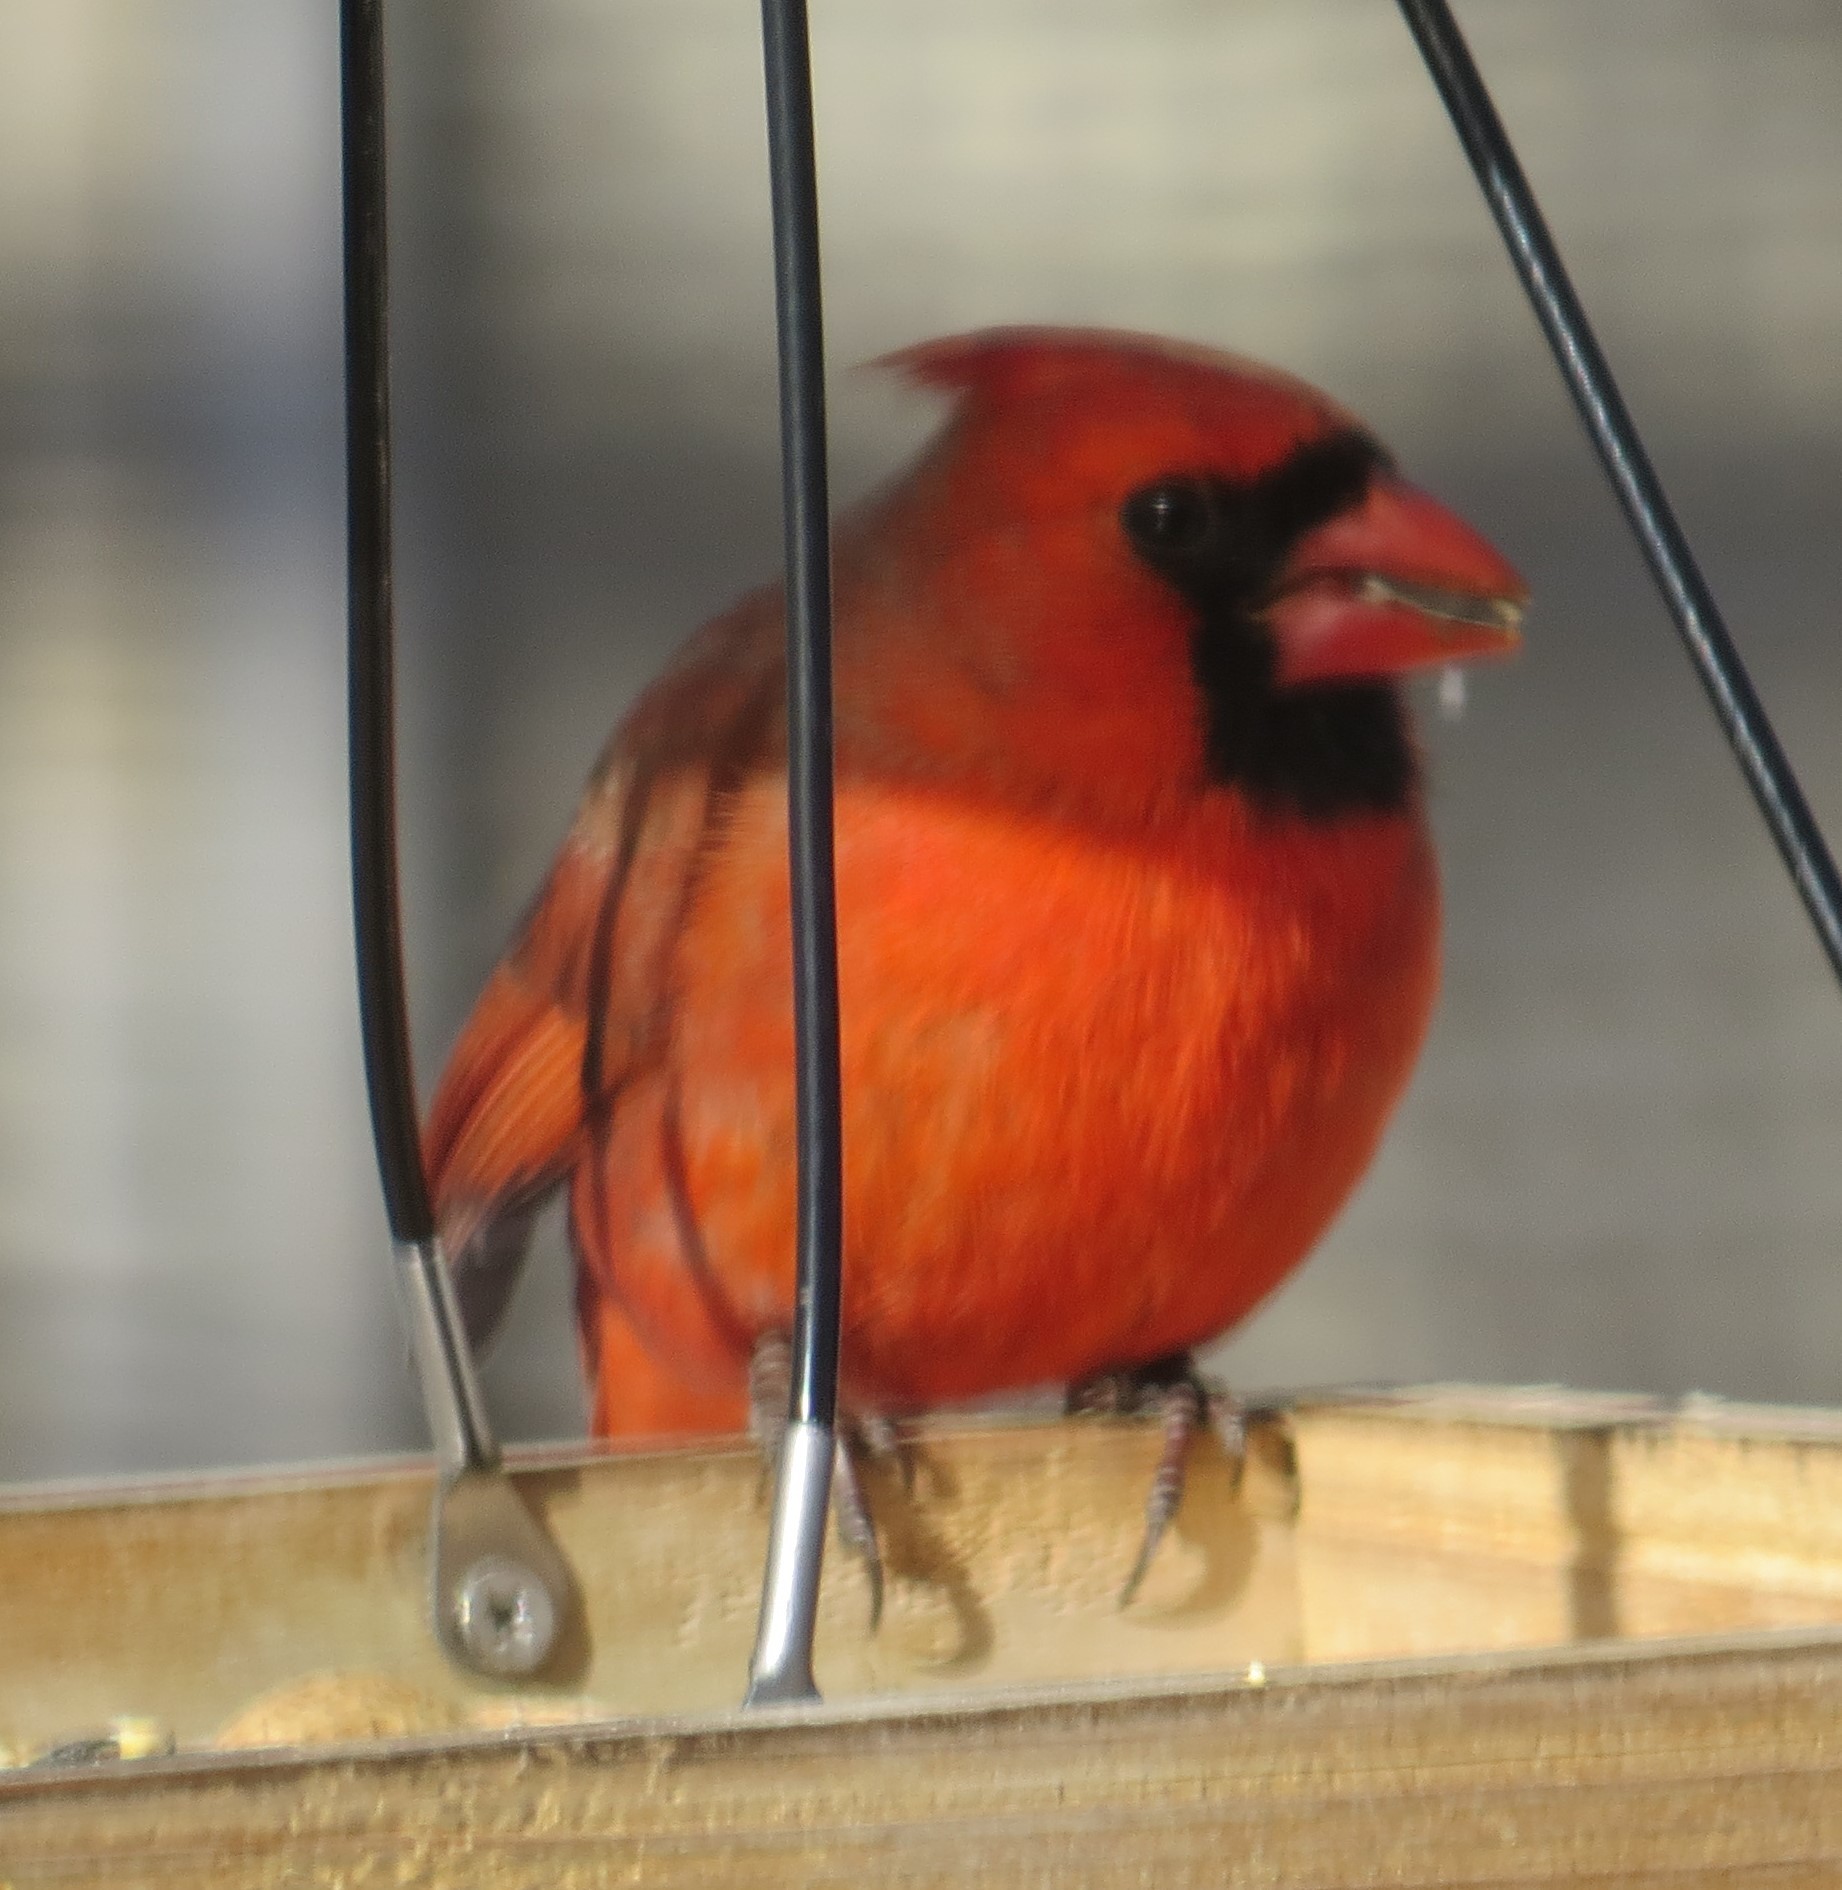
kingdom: Animalia
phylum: Chordata
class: Aves
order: Passeriformes
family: Cardinalidae
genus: Cardinalis
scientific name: Cardinalis cardinalis
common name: Northern cardinal
